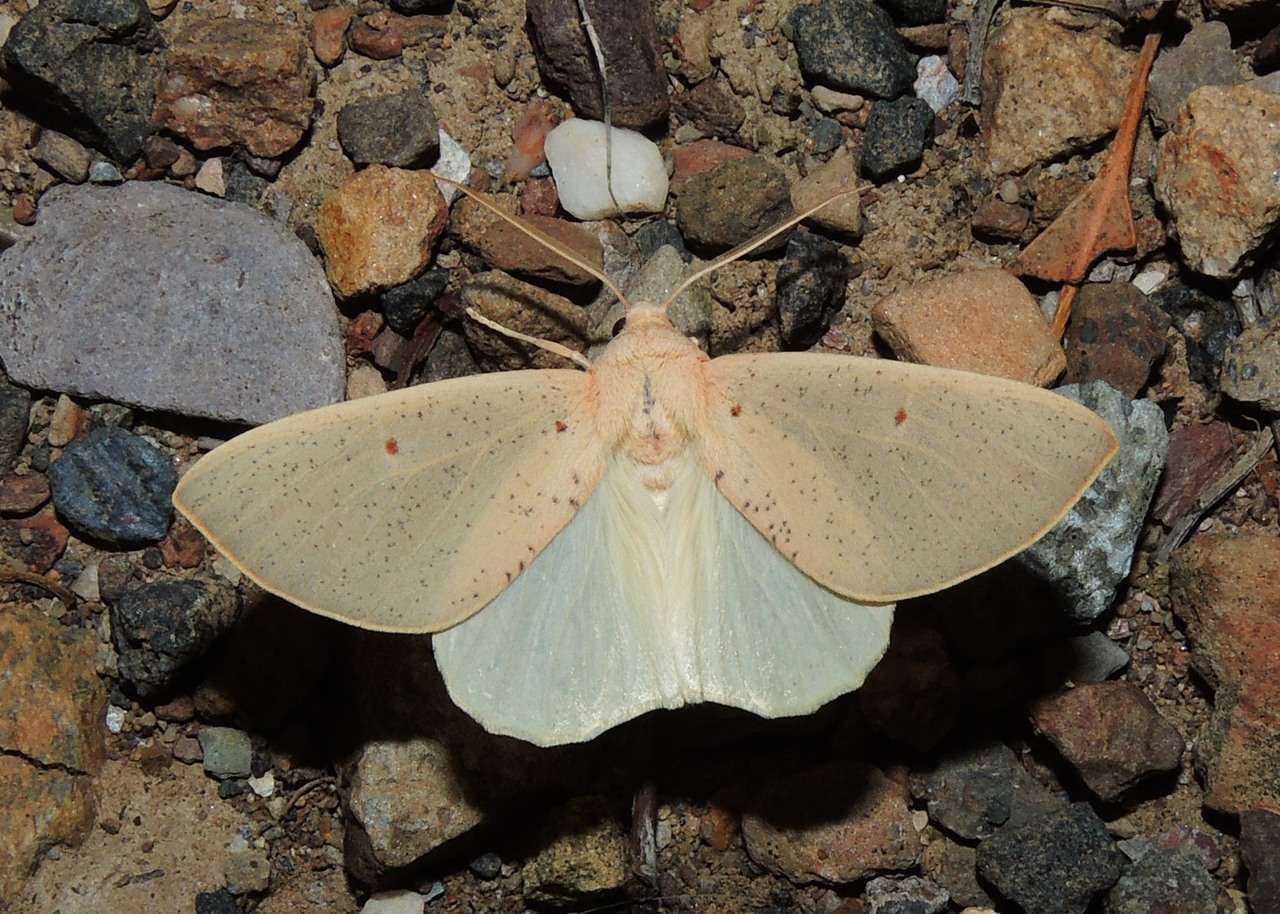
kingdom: Animalia
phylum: Arthropoda
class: Insecta
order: Lepidoptera
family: Geometridae
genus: Plesanemma
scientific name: Plesanemma fucata
